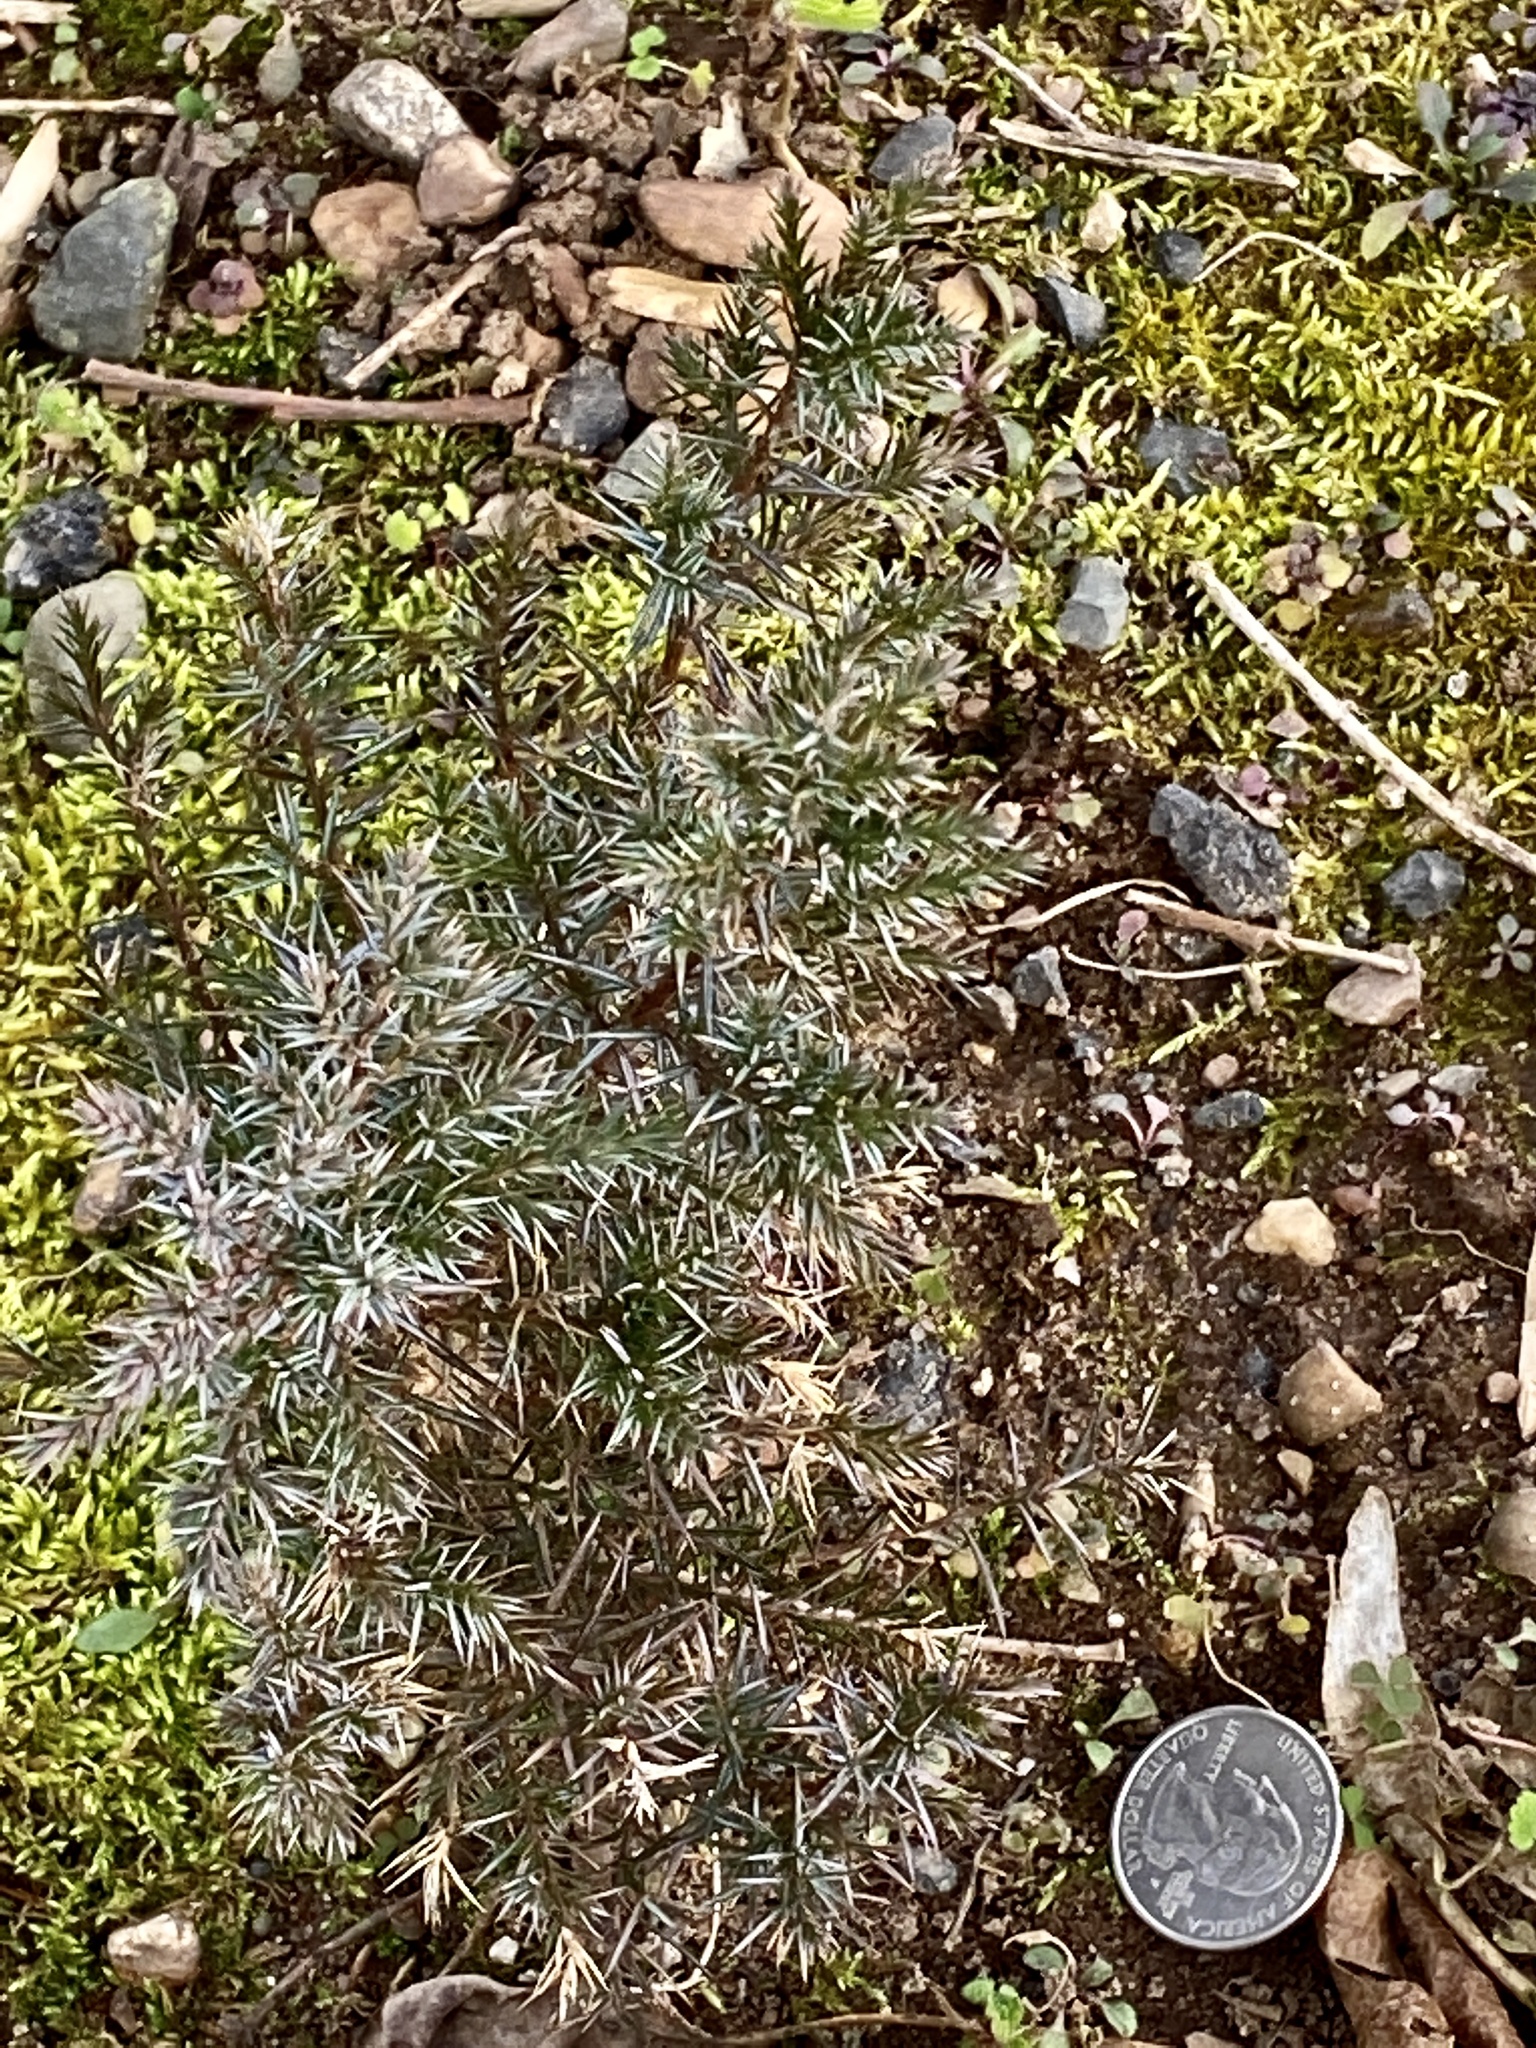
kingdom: Plantae
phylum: Tracheophyta
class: Pinopsida
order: Pinales
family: Cupressaceae
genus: Juniperus
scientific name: Juniperus virginiana
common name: Red juniper
